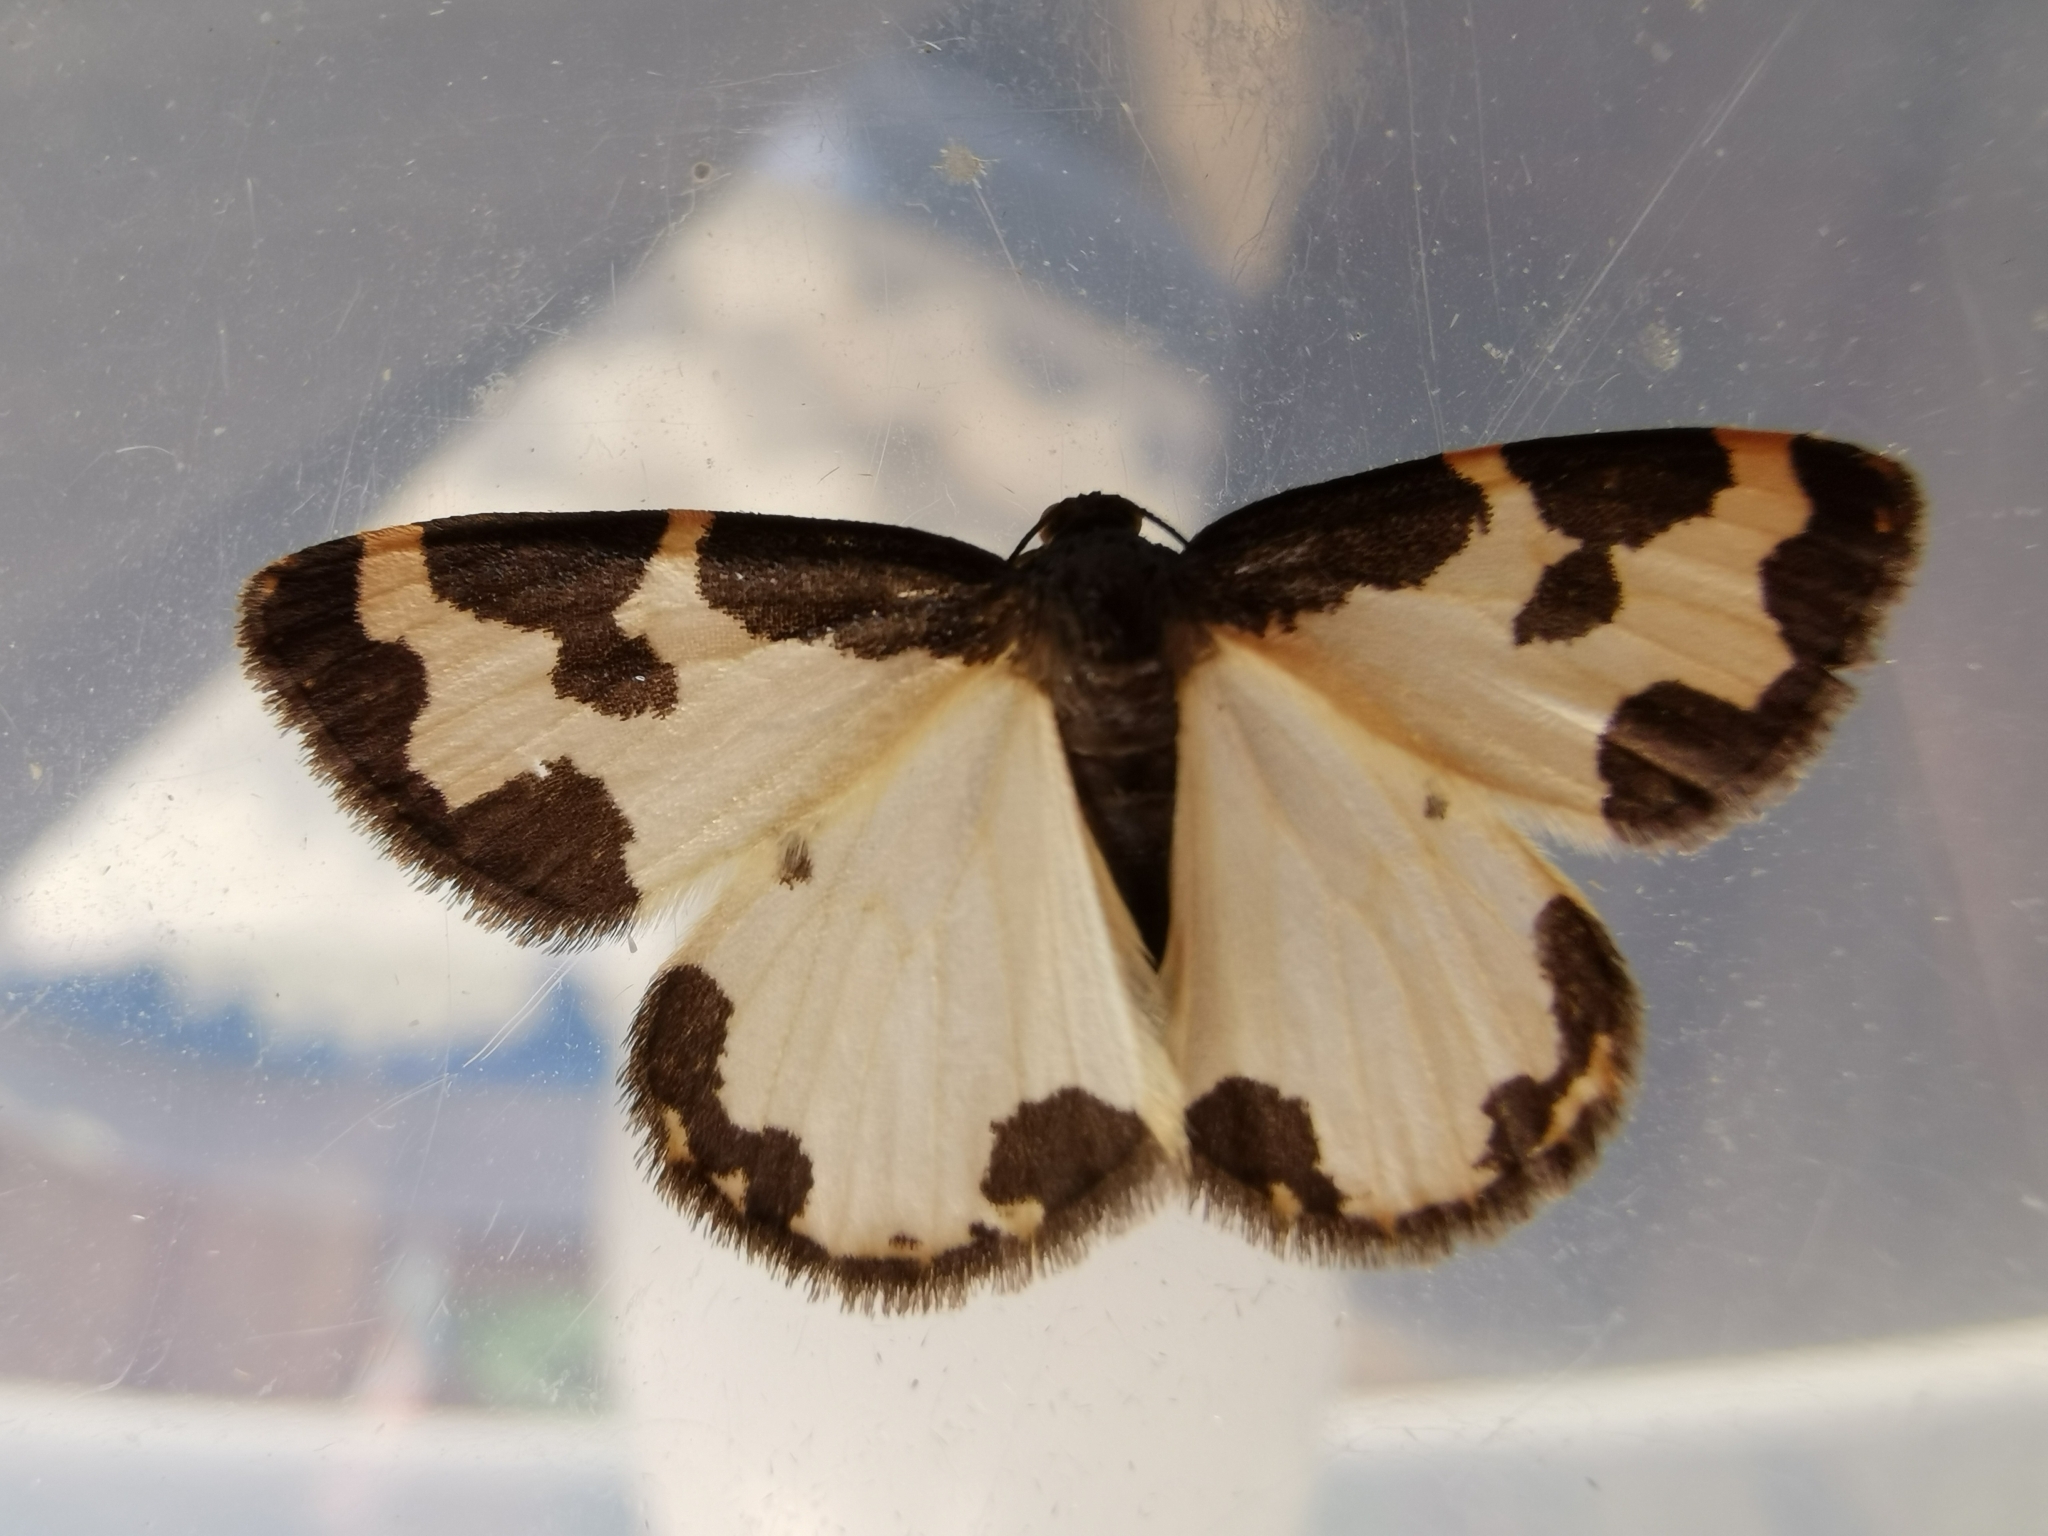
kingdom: Animalia
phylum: Arthropoda
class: Insecta
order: Lepidoptera
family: Geometridae
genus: Lomaspilis
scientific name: Lomaspilis marginata
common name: Clouded border
